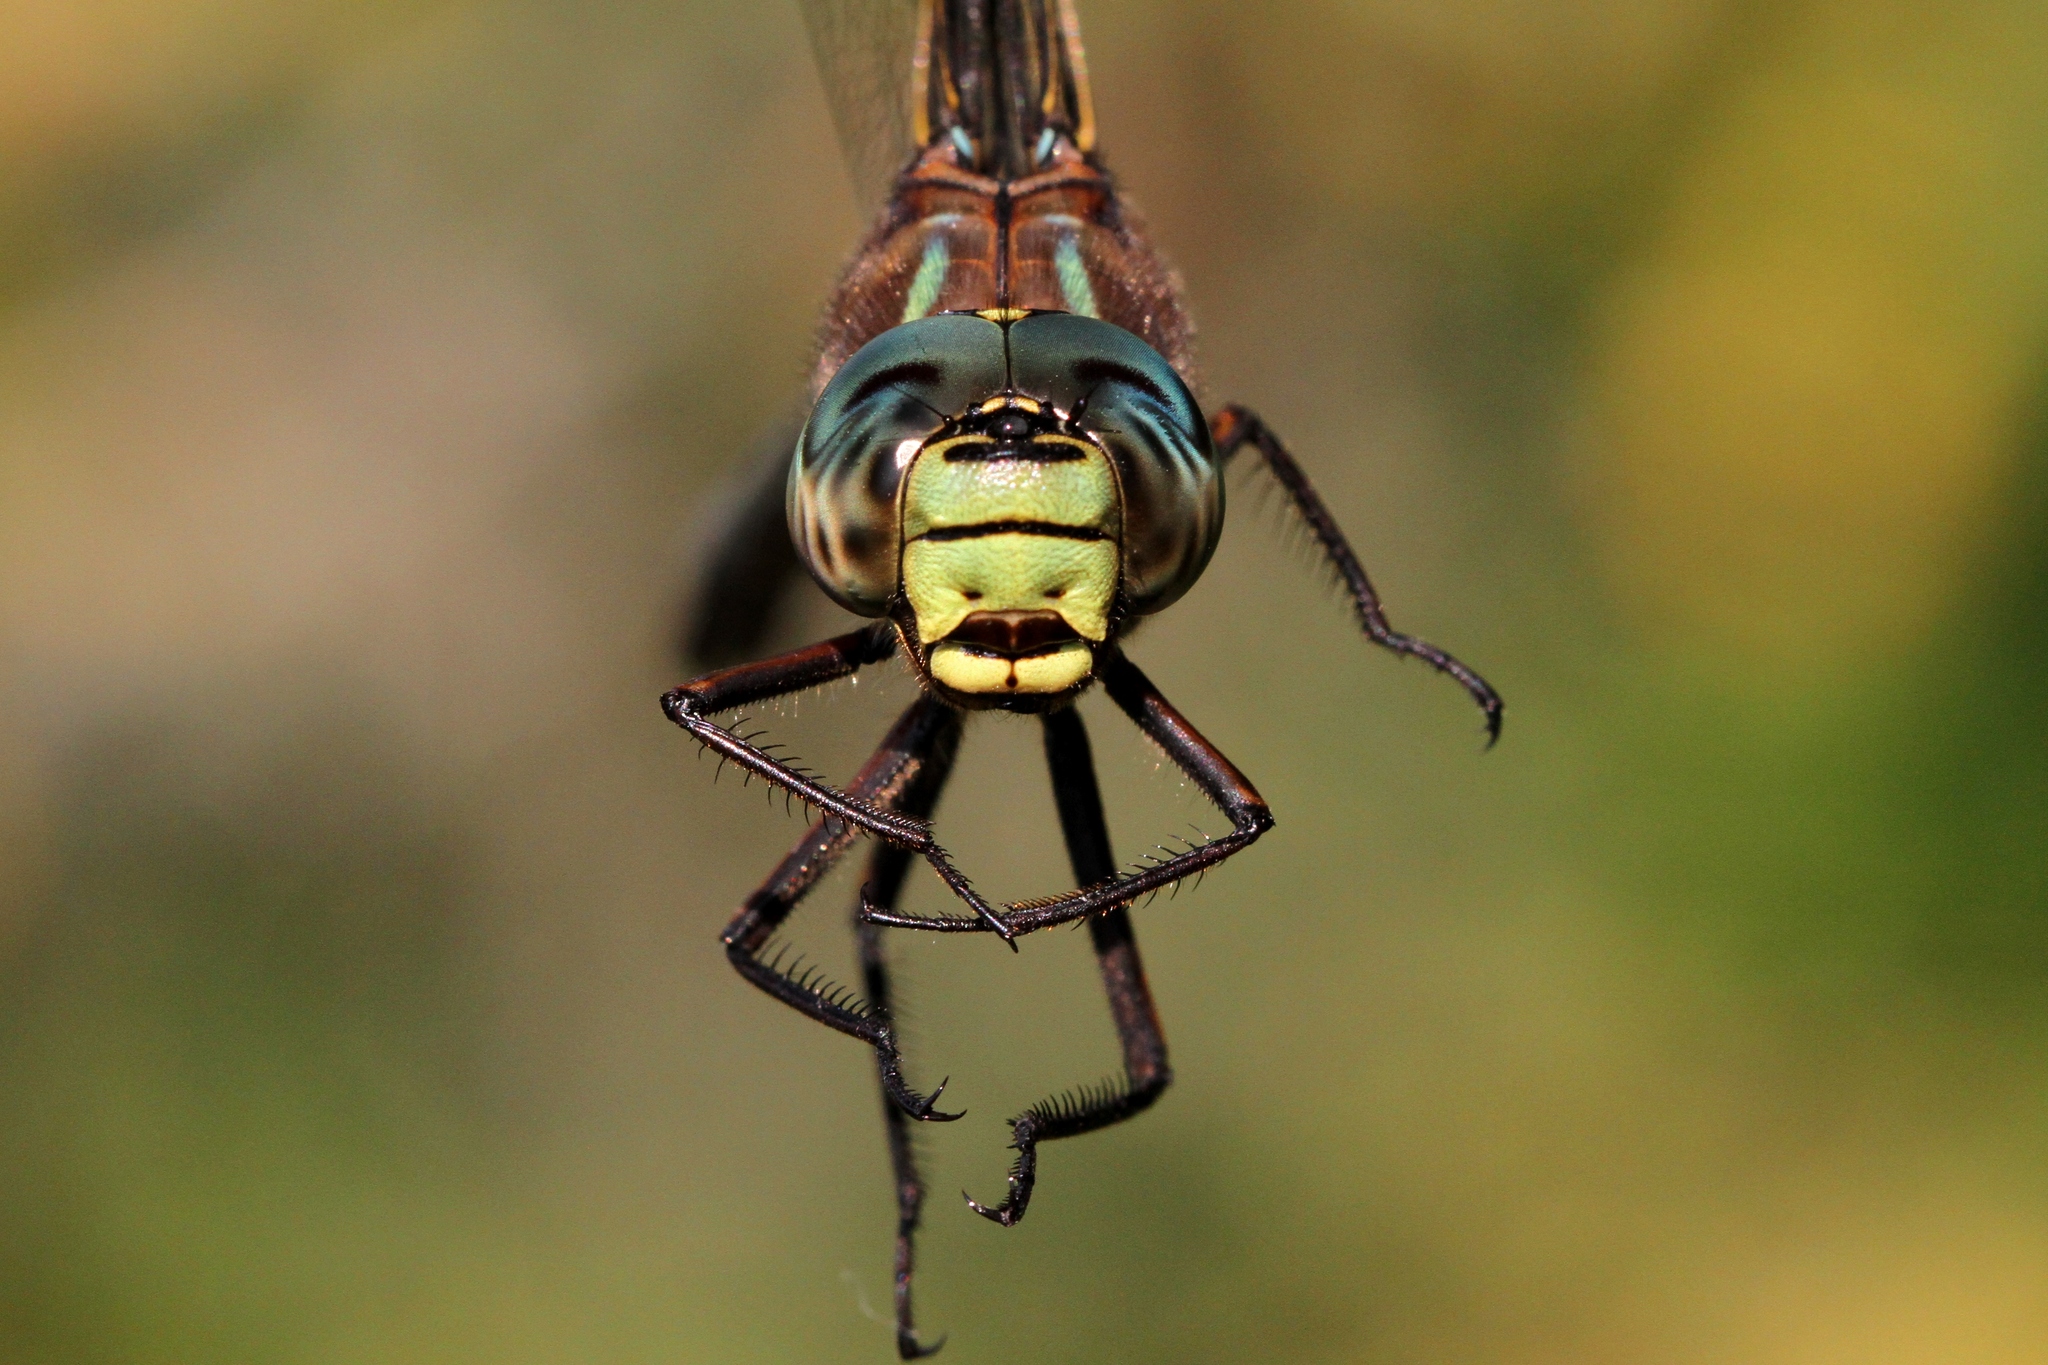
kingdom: Animalia
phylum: Arthropoda
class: Insecta
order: Odonata
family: Aeshnidae
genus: Aeshna
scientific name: Aeshna eremita
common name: Lake darner
